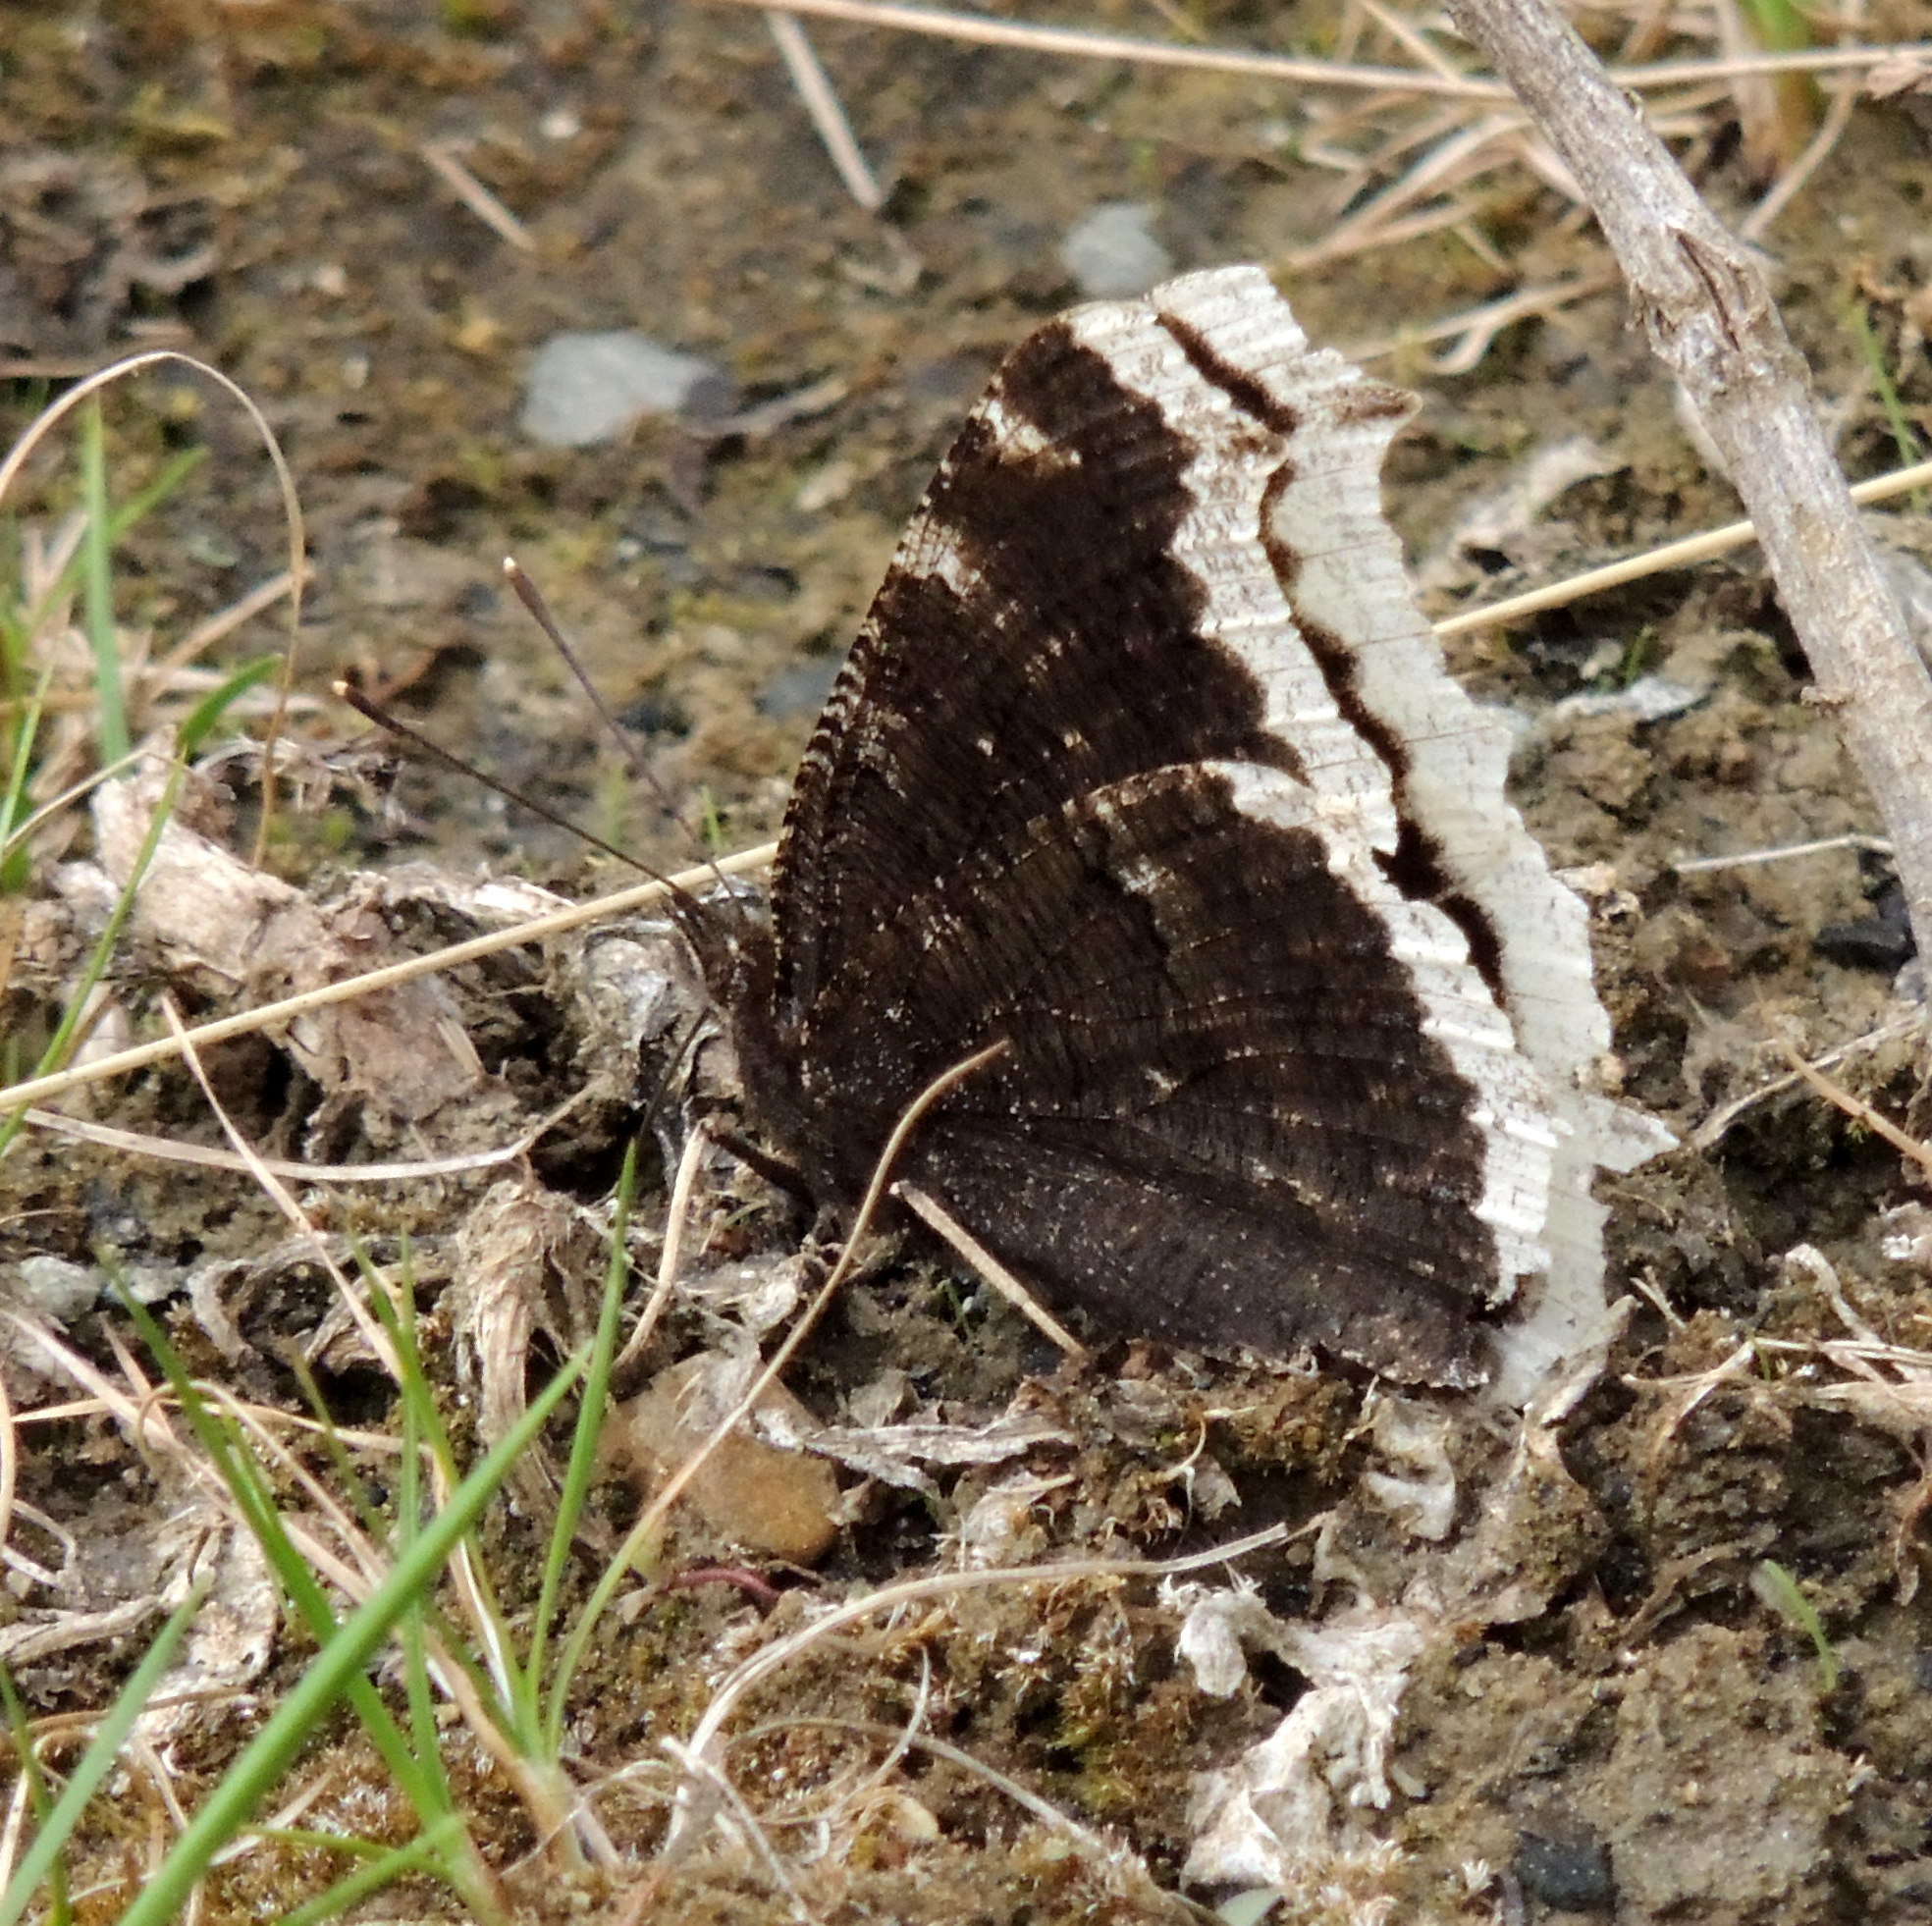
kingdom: Animalia
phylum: Arthropoda
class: Insecta
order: Lepidoptera
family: Nymphalidae
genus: Nymphalis
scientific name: Nymphalis antiopa
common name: Camberwell beauty
